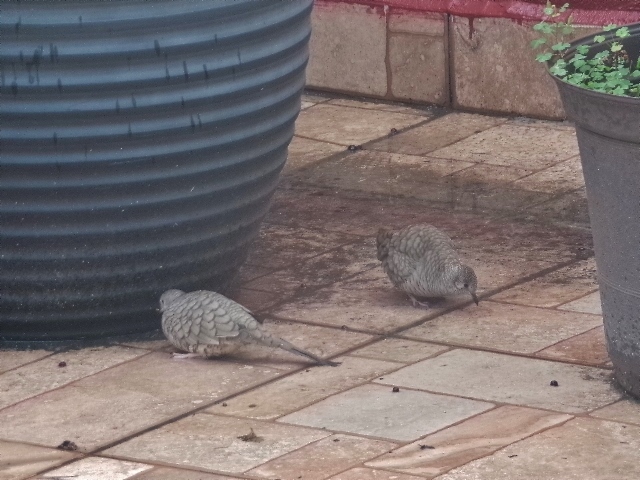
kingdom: Animalia
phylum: Chordata
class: Aves
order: Columbiformes
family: Columbidae
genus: Columbina
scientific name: Columbina inca
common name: Inca dove
